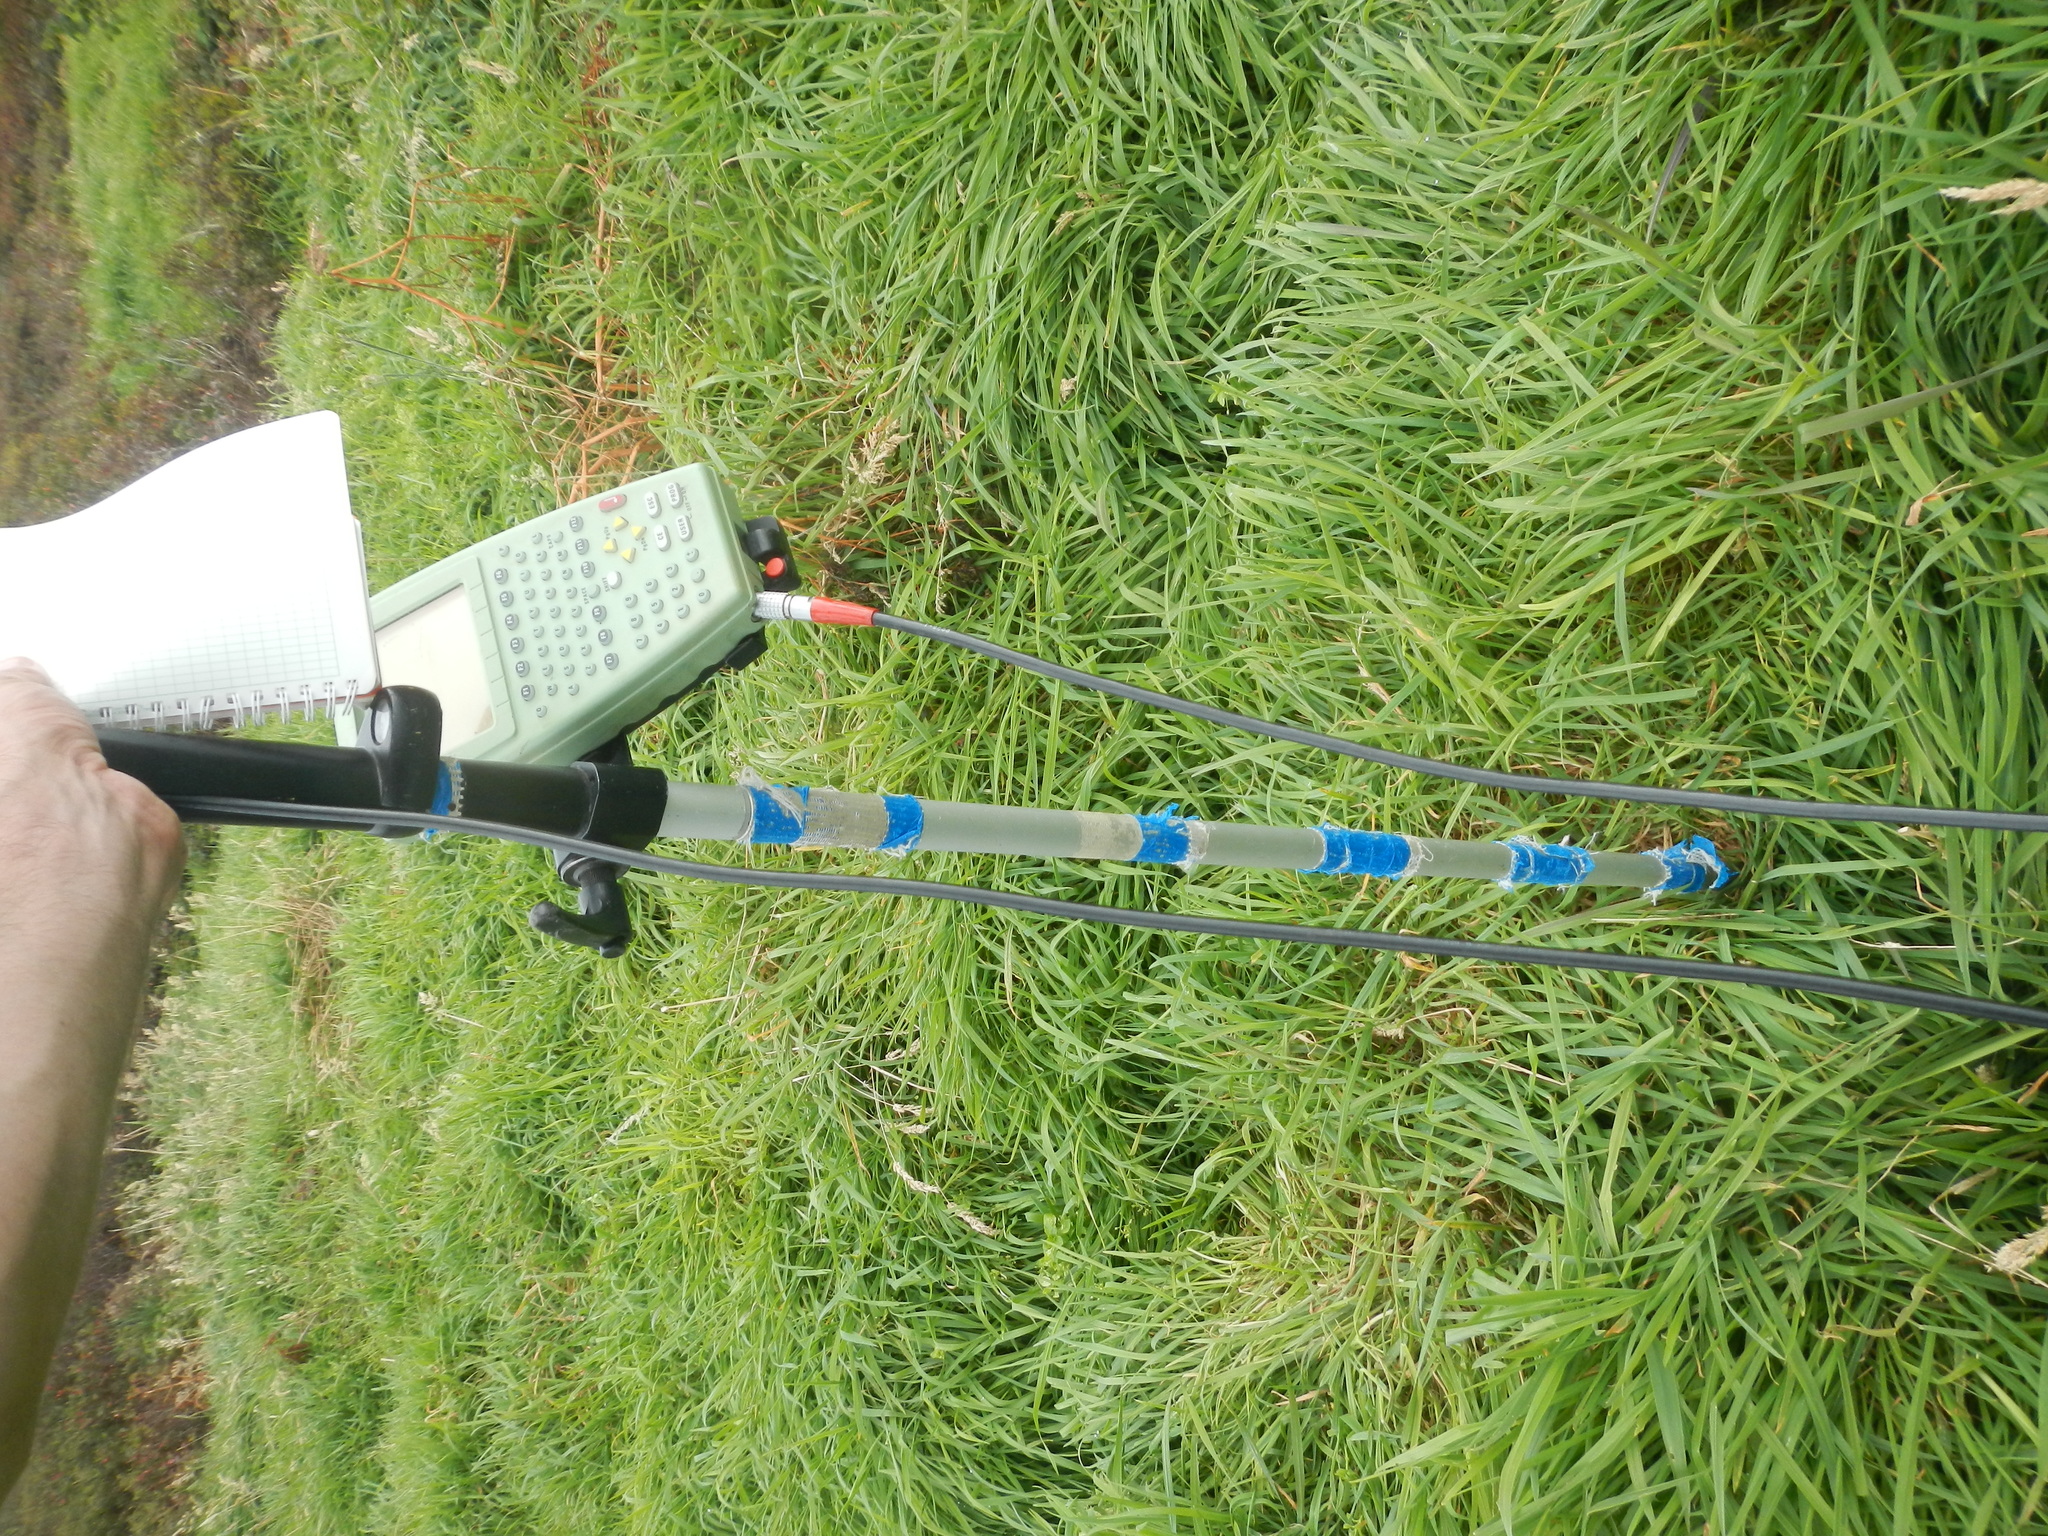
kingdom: Plantae
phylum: Tracheophyta
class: Liliopsida
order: Poales
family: Poaceae
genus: Holcus
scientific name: Holcus lanatus
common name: Yorkshire-fog
